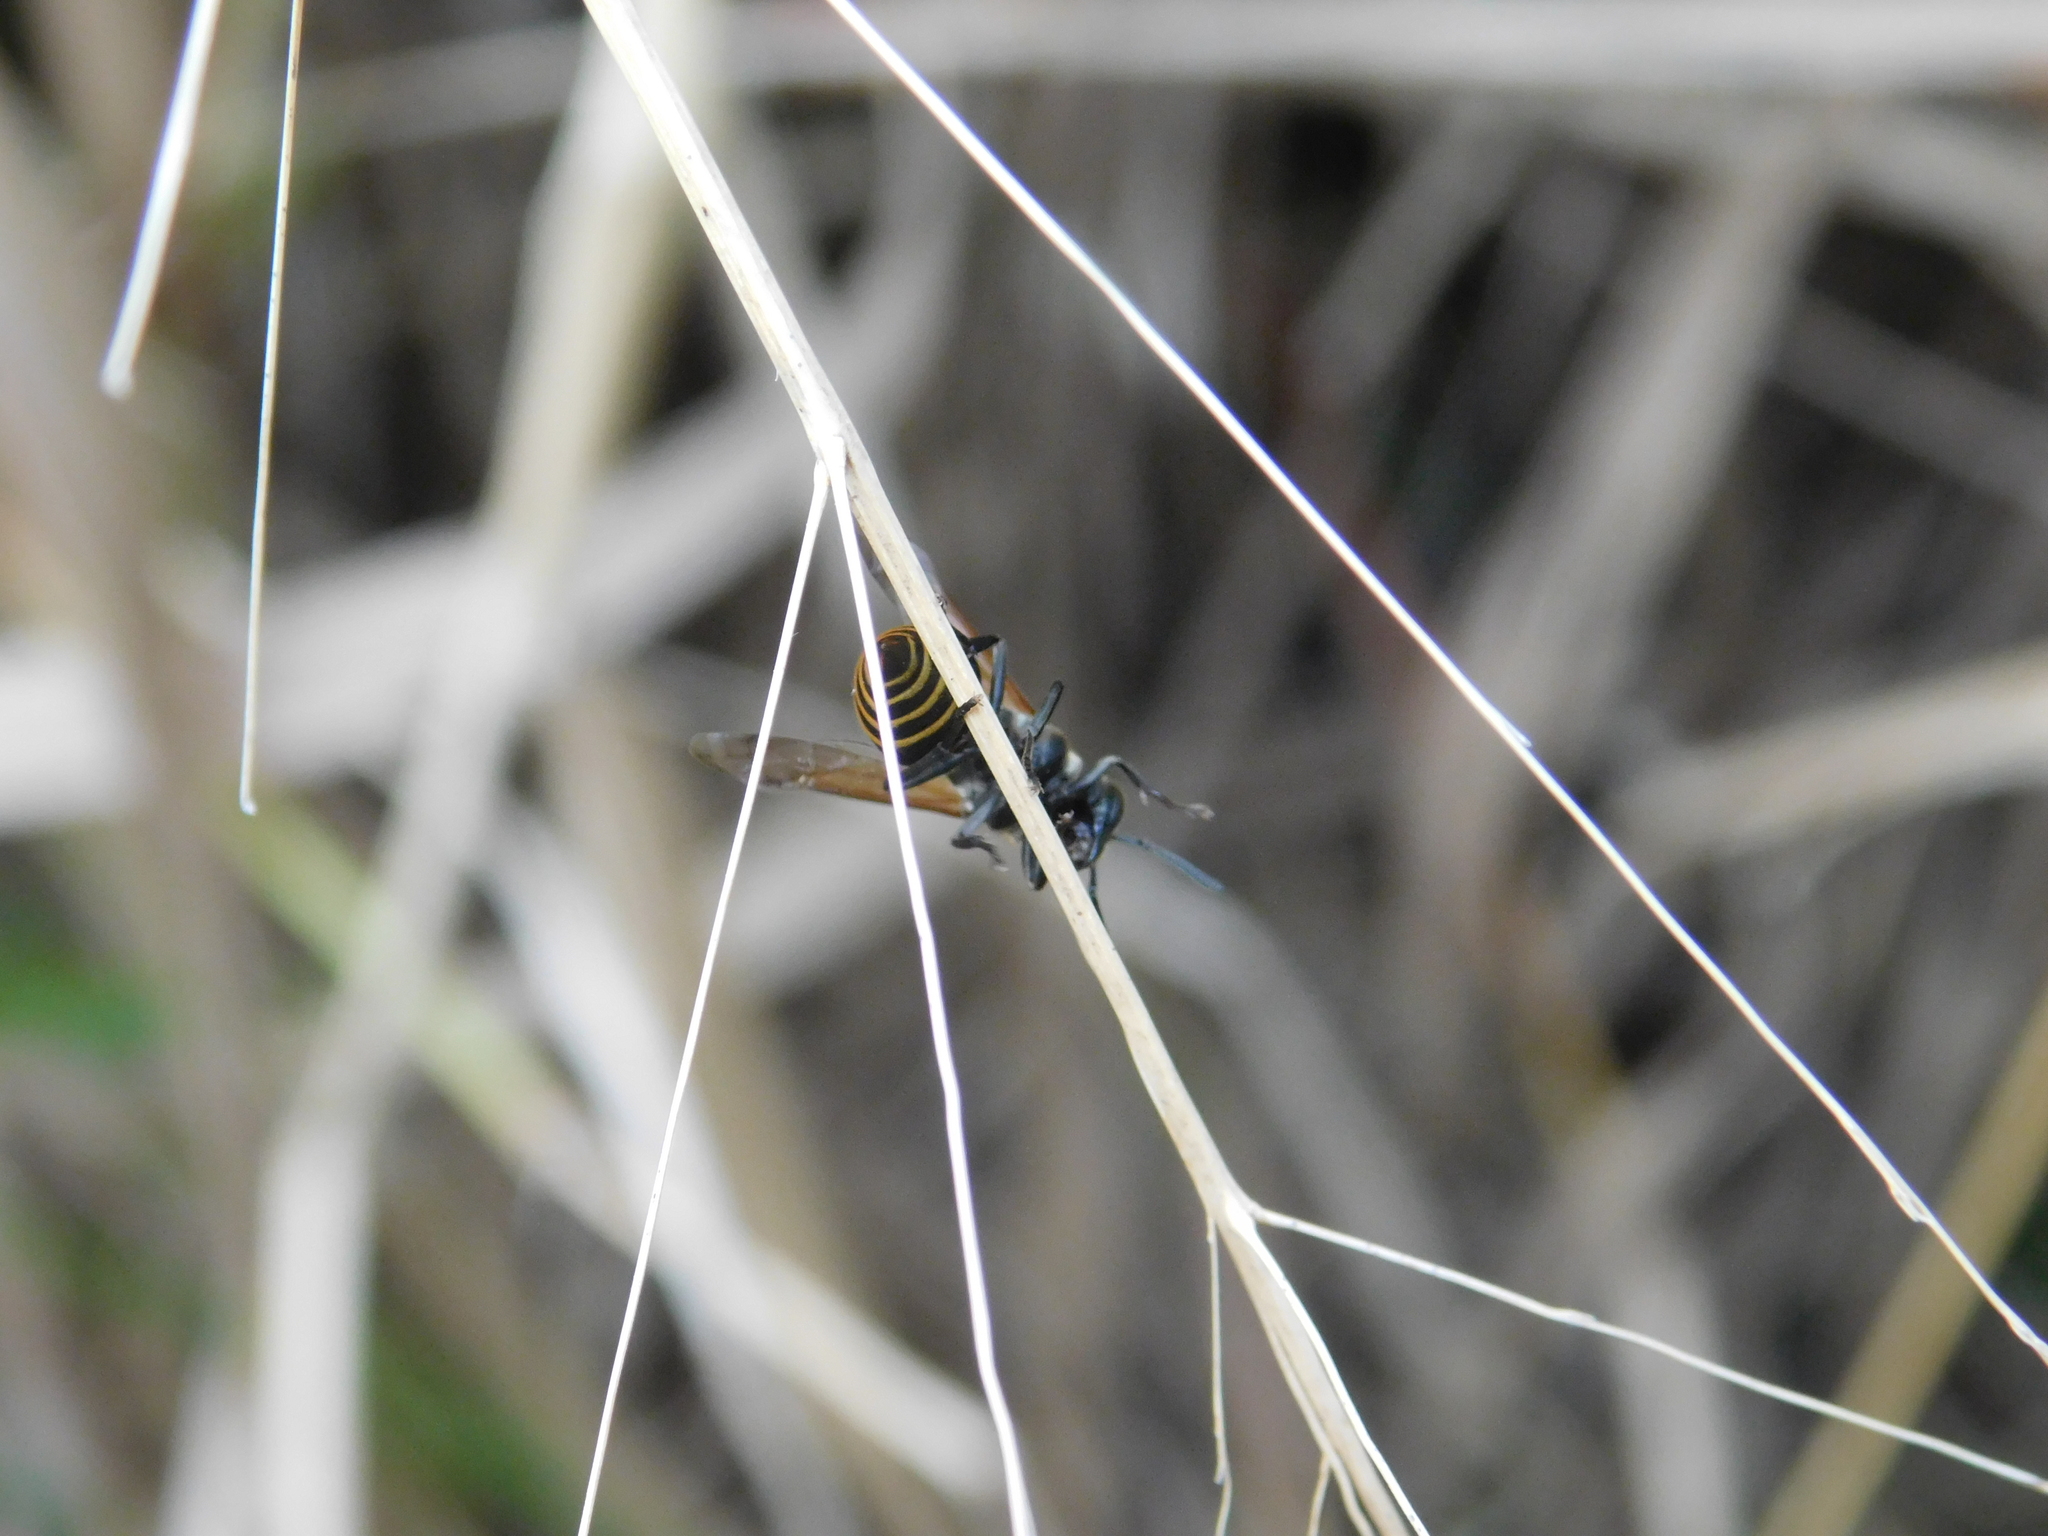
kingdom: Animalia
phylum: Arthropoda
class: Insecta
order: Hymenoptera
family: Vespidae
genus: Brachygastra
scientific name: Brachygastra lecheguana
